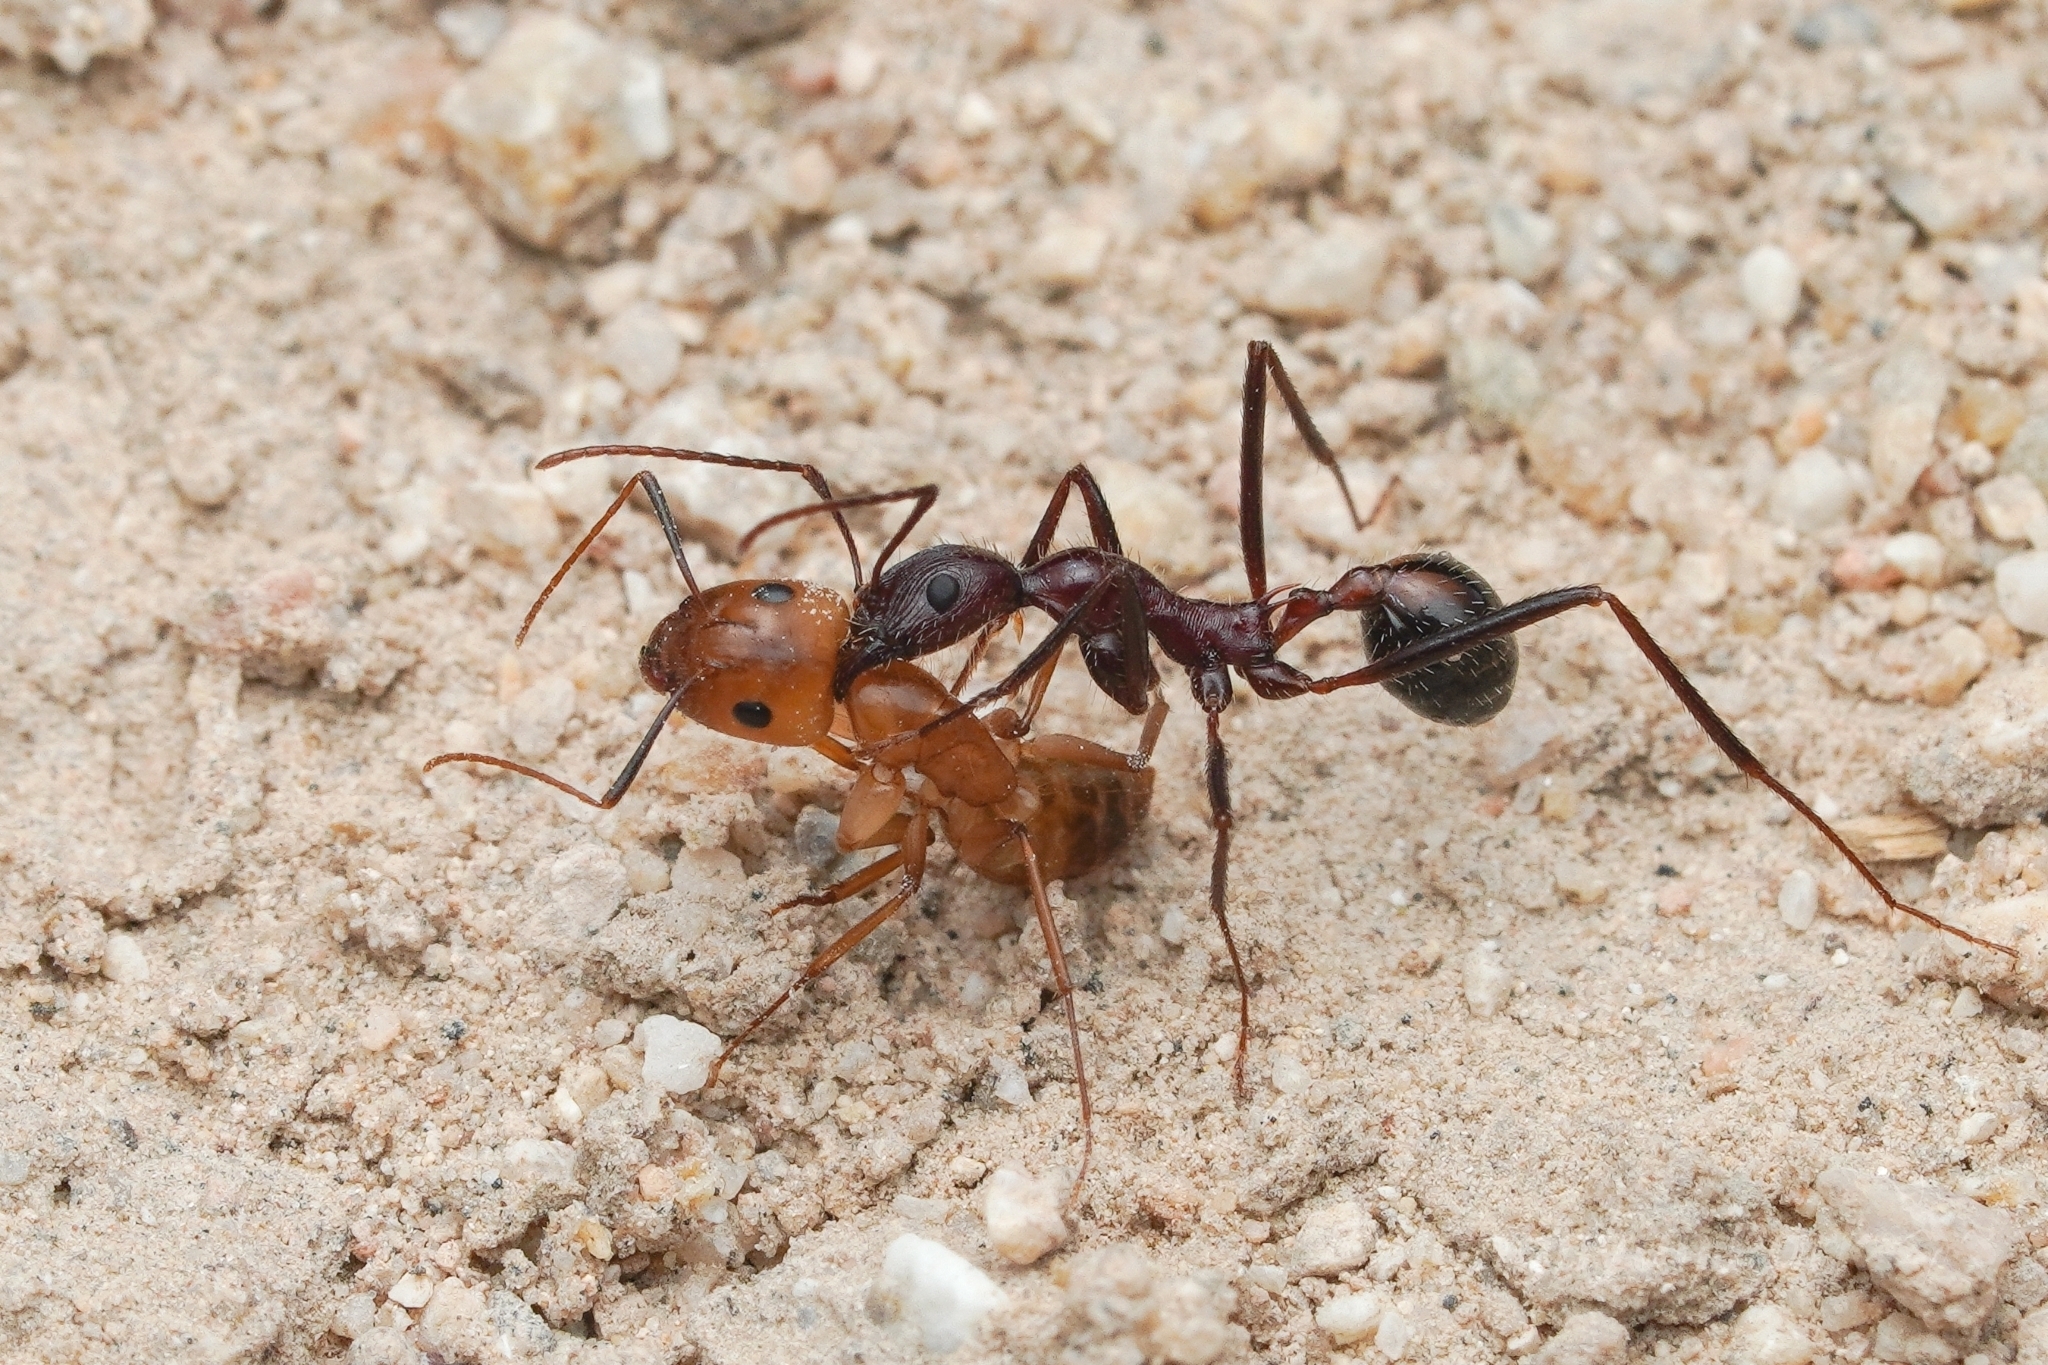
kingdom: Animalia
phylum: Arthropoda
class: Insecta
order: Hymenoptera
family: Formicidae
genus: Novomessor
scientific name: Novomessor cockerelli
